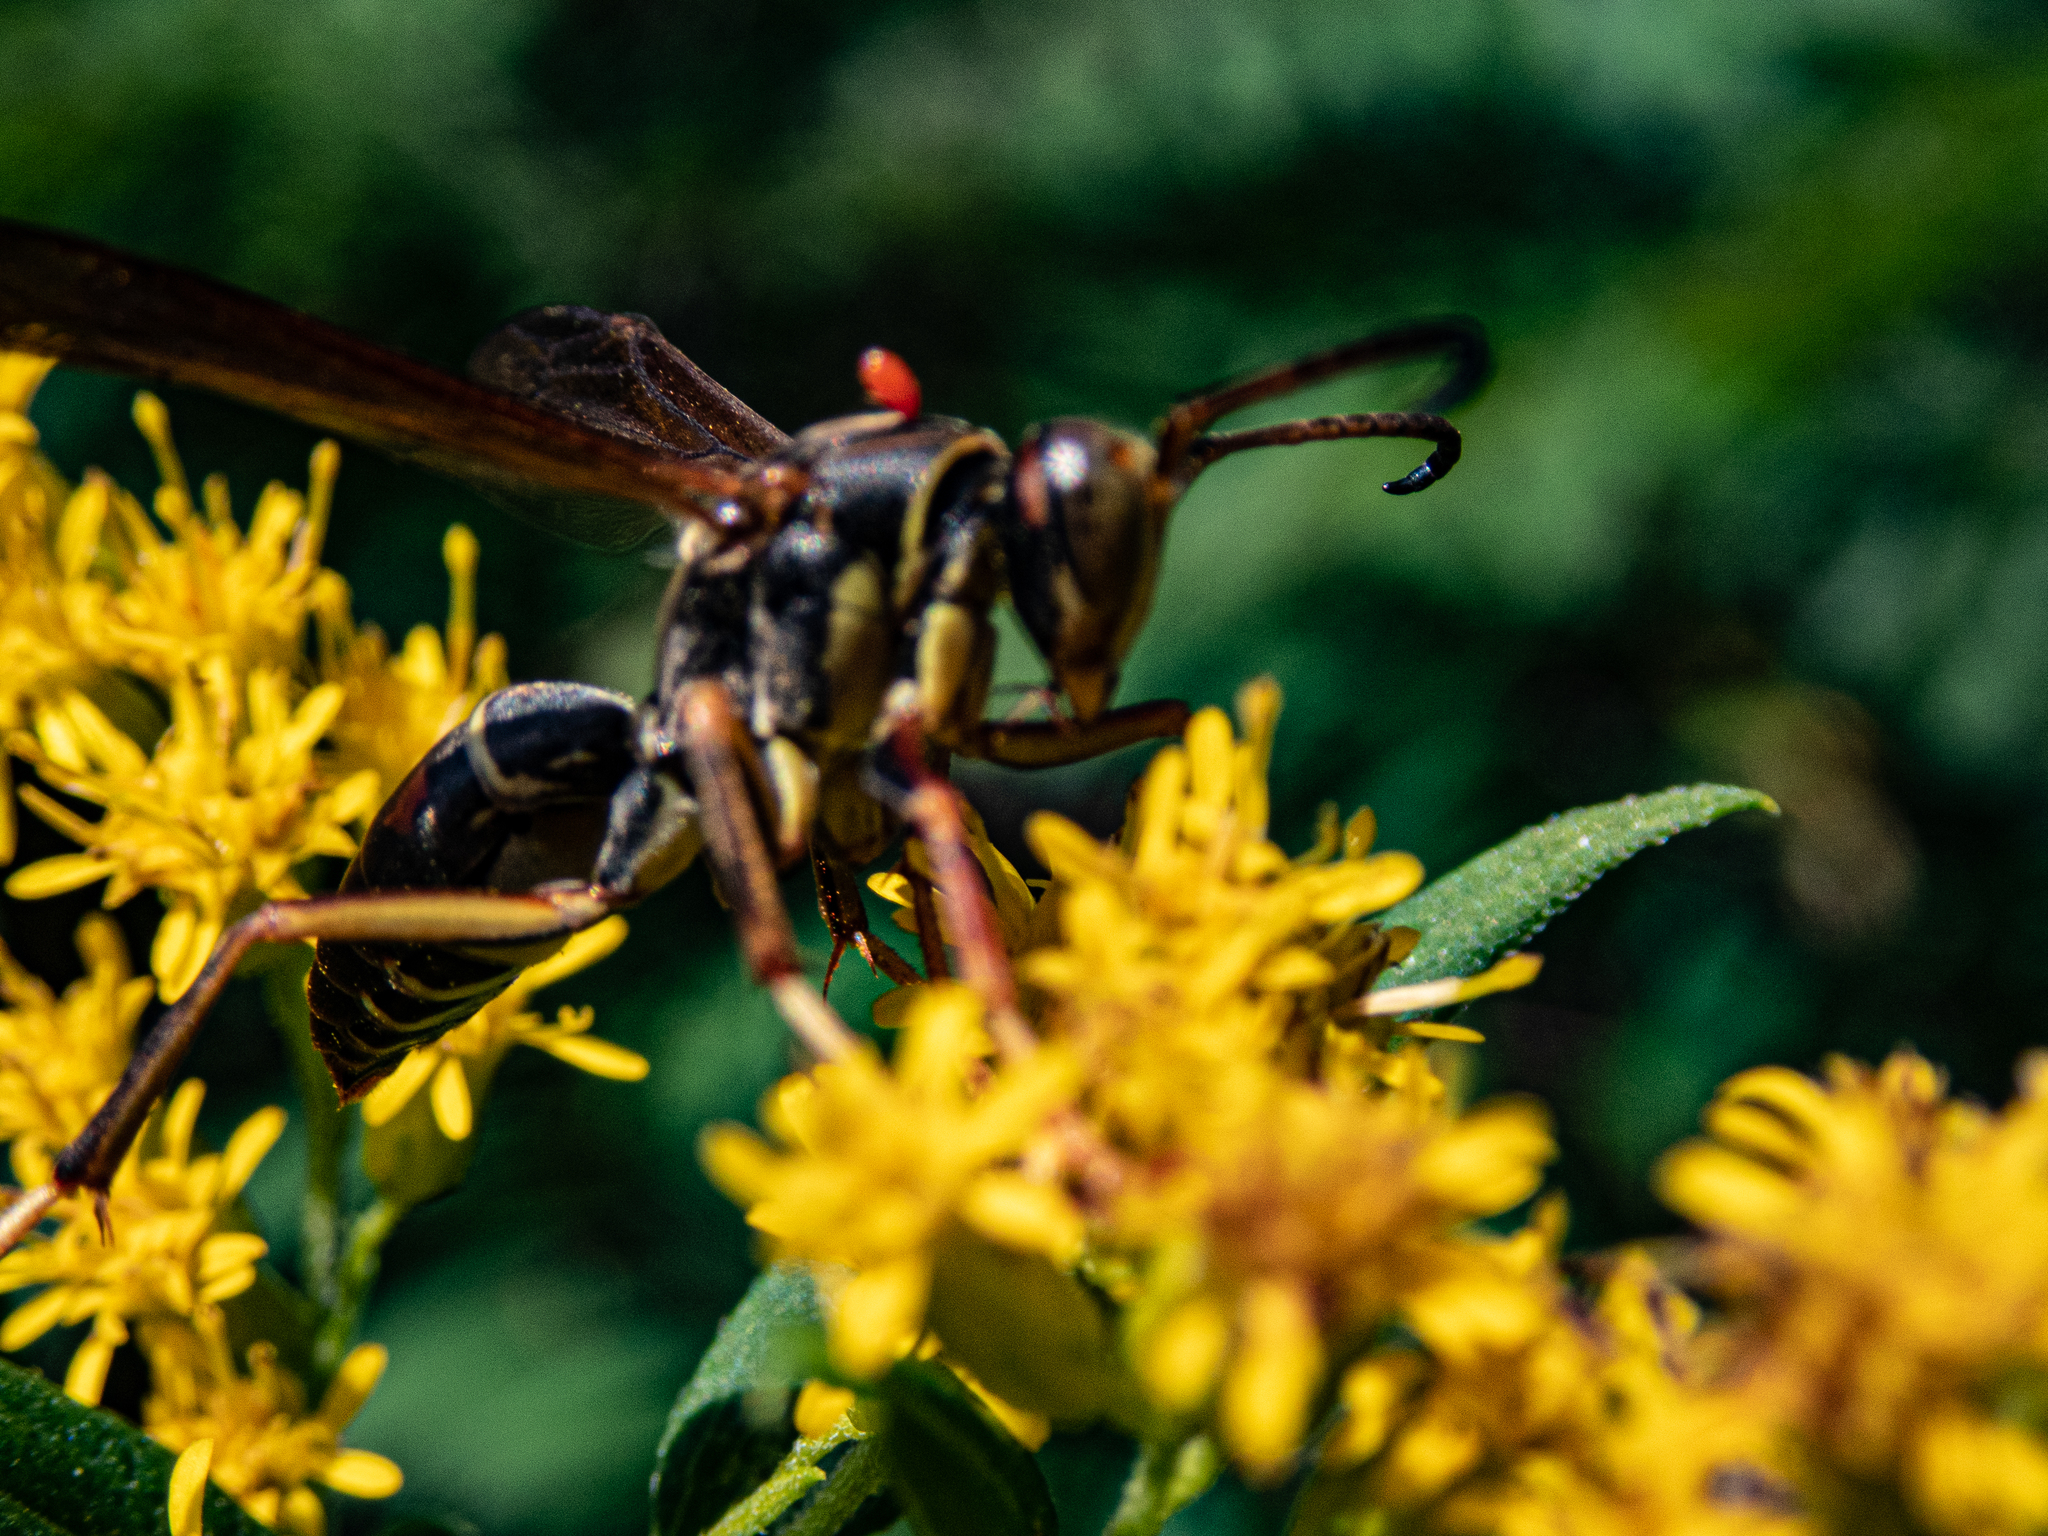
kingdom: Animalia
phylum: Arthropoda
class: Insecta
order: Hymenoptera
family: Eumenidae
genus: Polistes
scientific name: Polistes fuscatus
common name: Dark paper wasp
